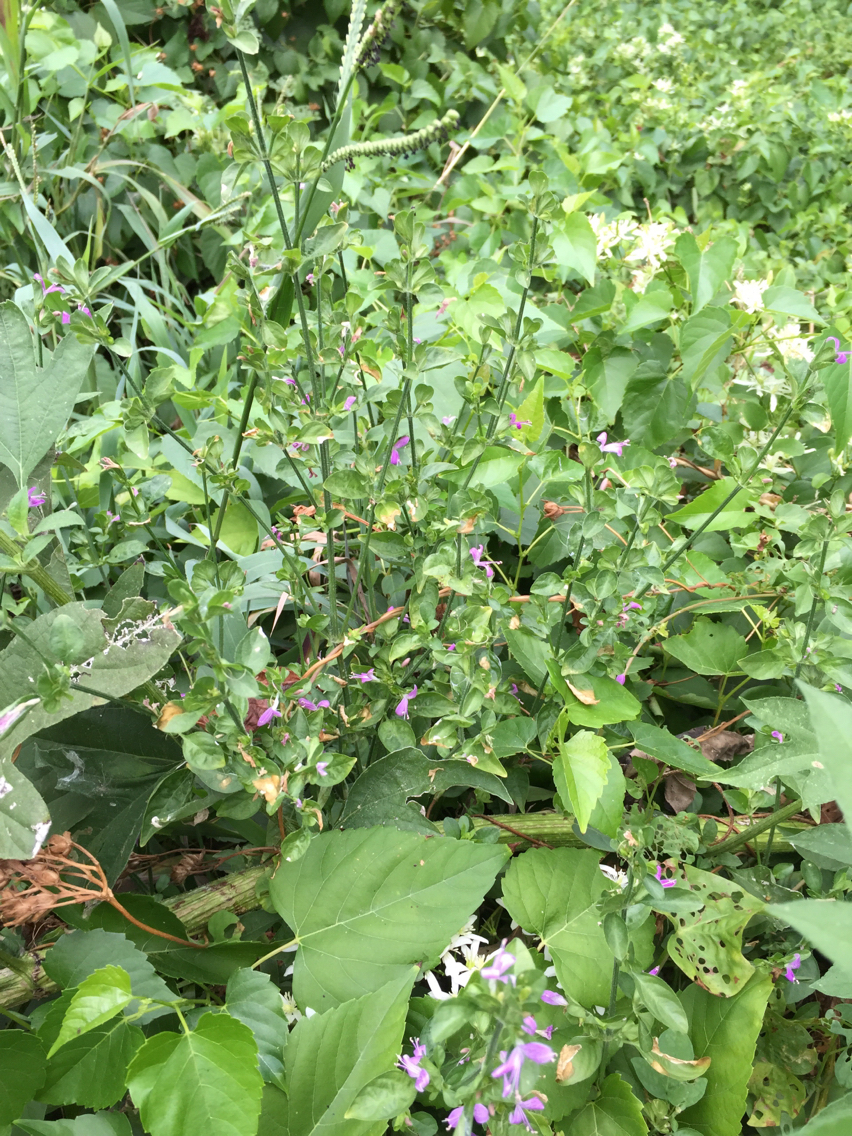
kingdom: Plantae
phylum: Tracheophyta
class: Magnoliopsida
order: Lamiales
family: Acanthaceae
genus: Dicliptera
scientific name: Dicliptera brachiata
